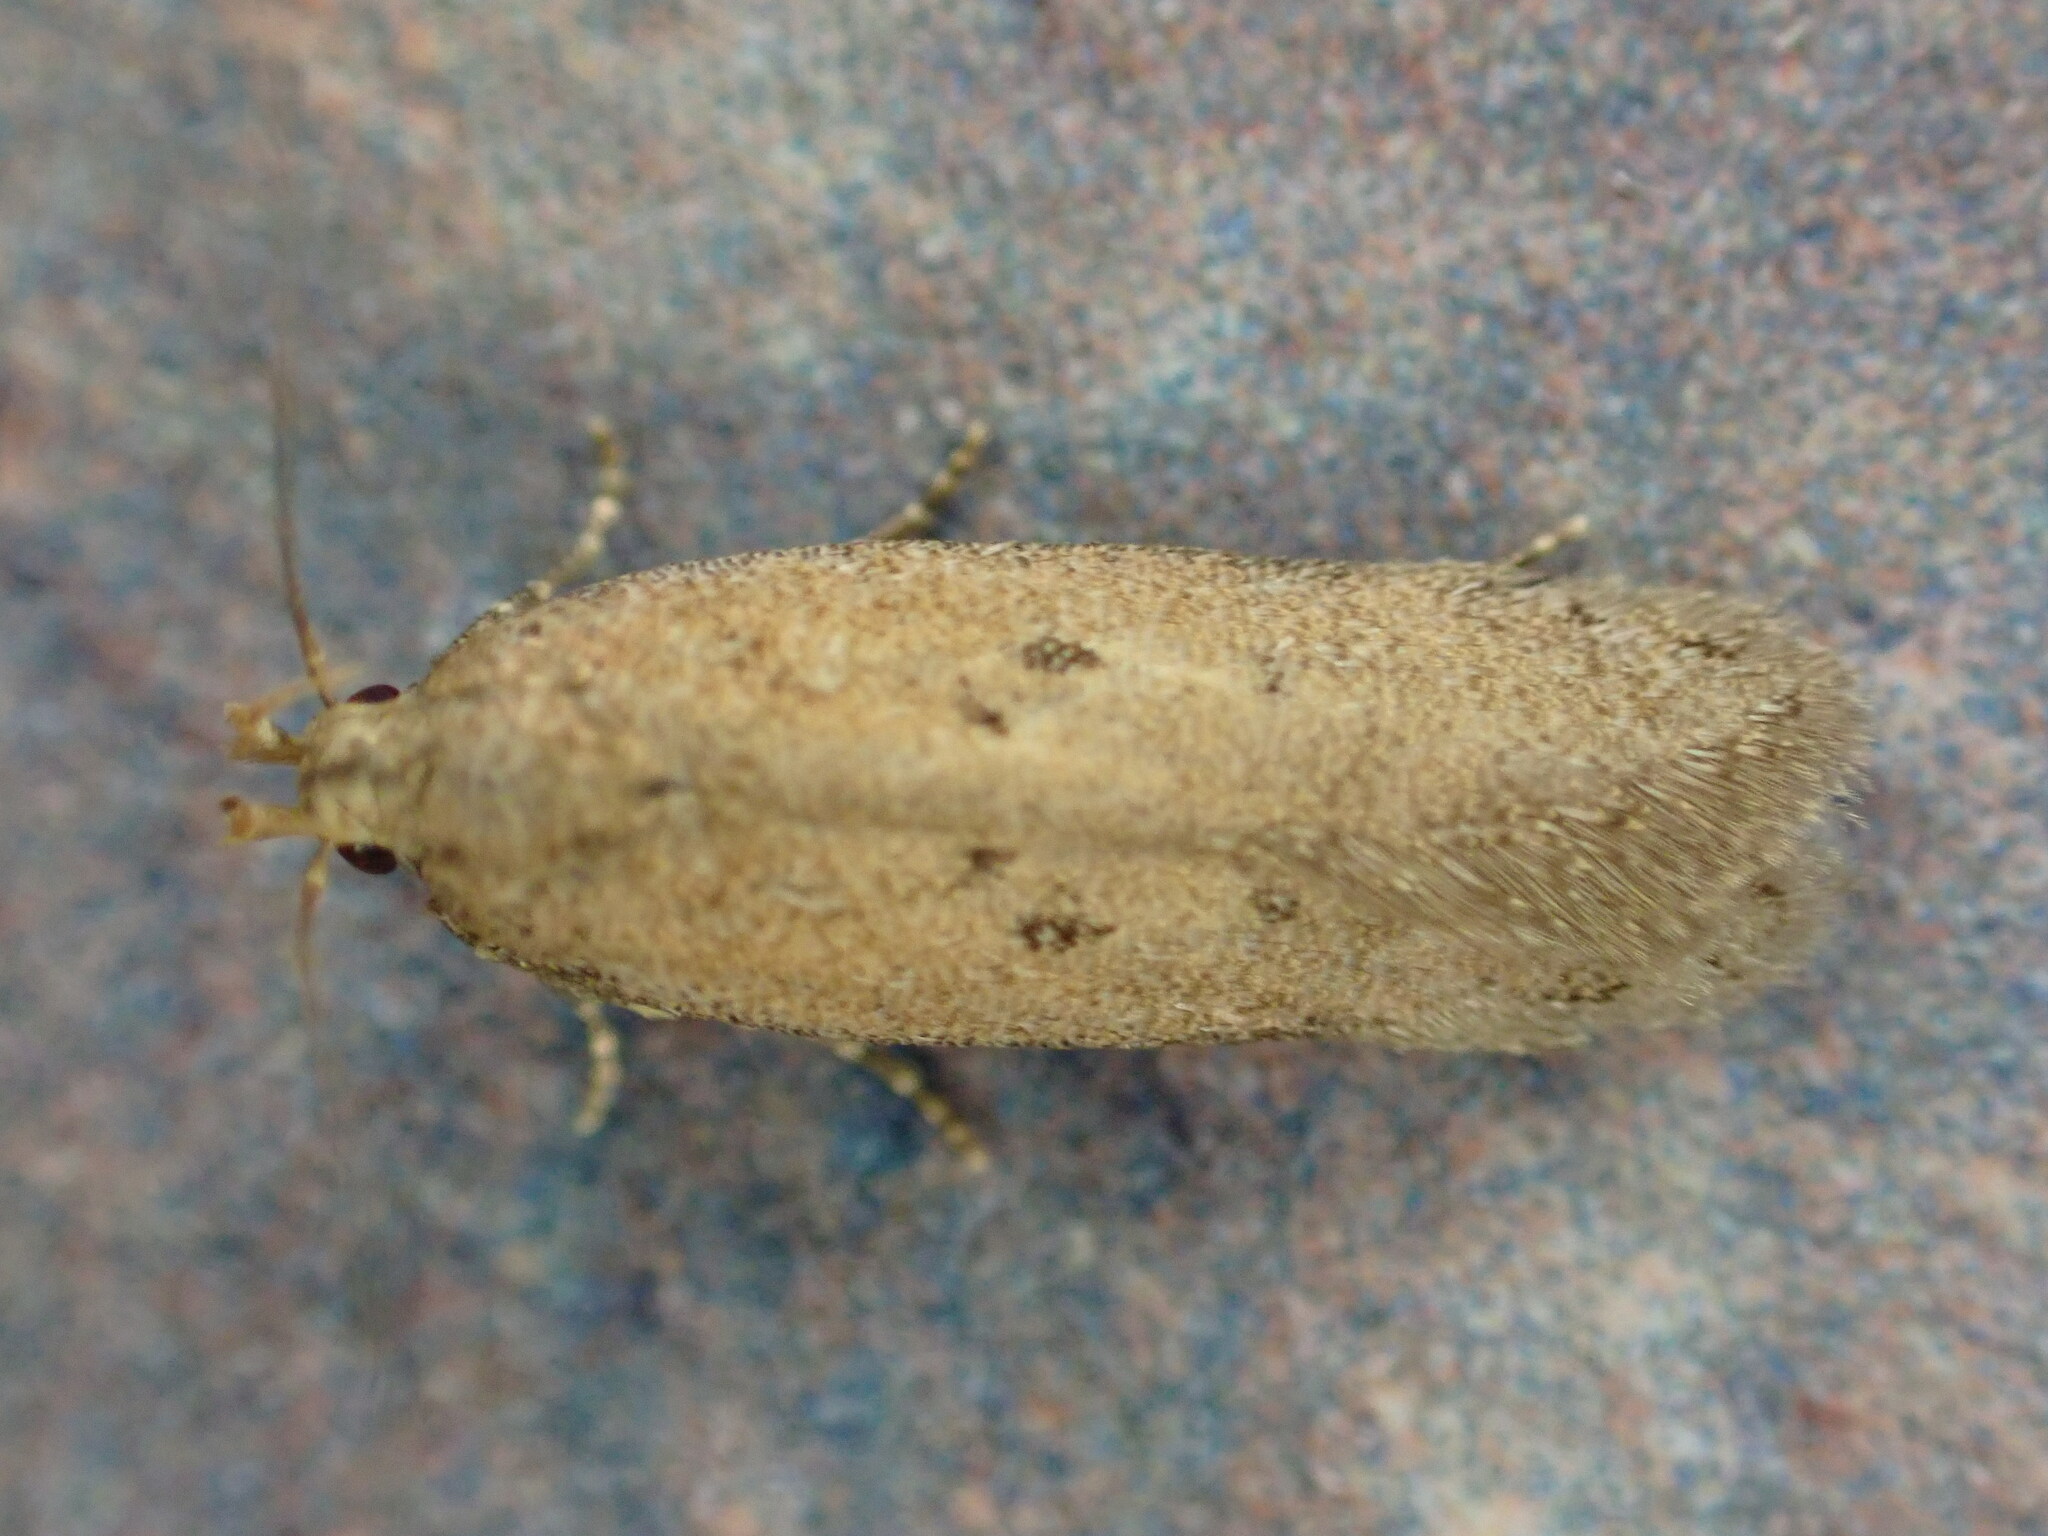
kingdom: Animalia
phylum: Arthropoda
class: Insecta
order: Lepidoptera
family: Gelechiidae
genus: Bryotropha
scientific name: Bryotropha terrella
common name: Cinerous groundling
